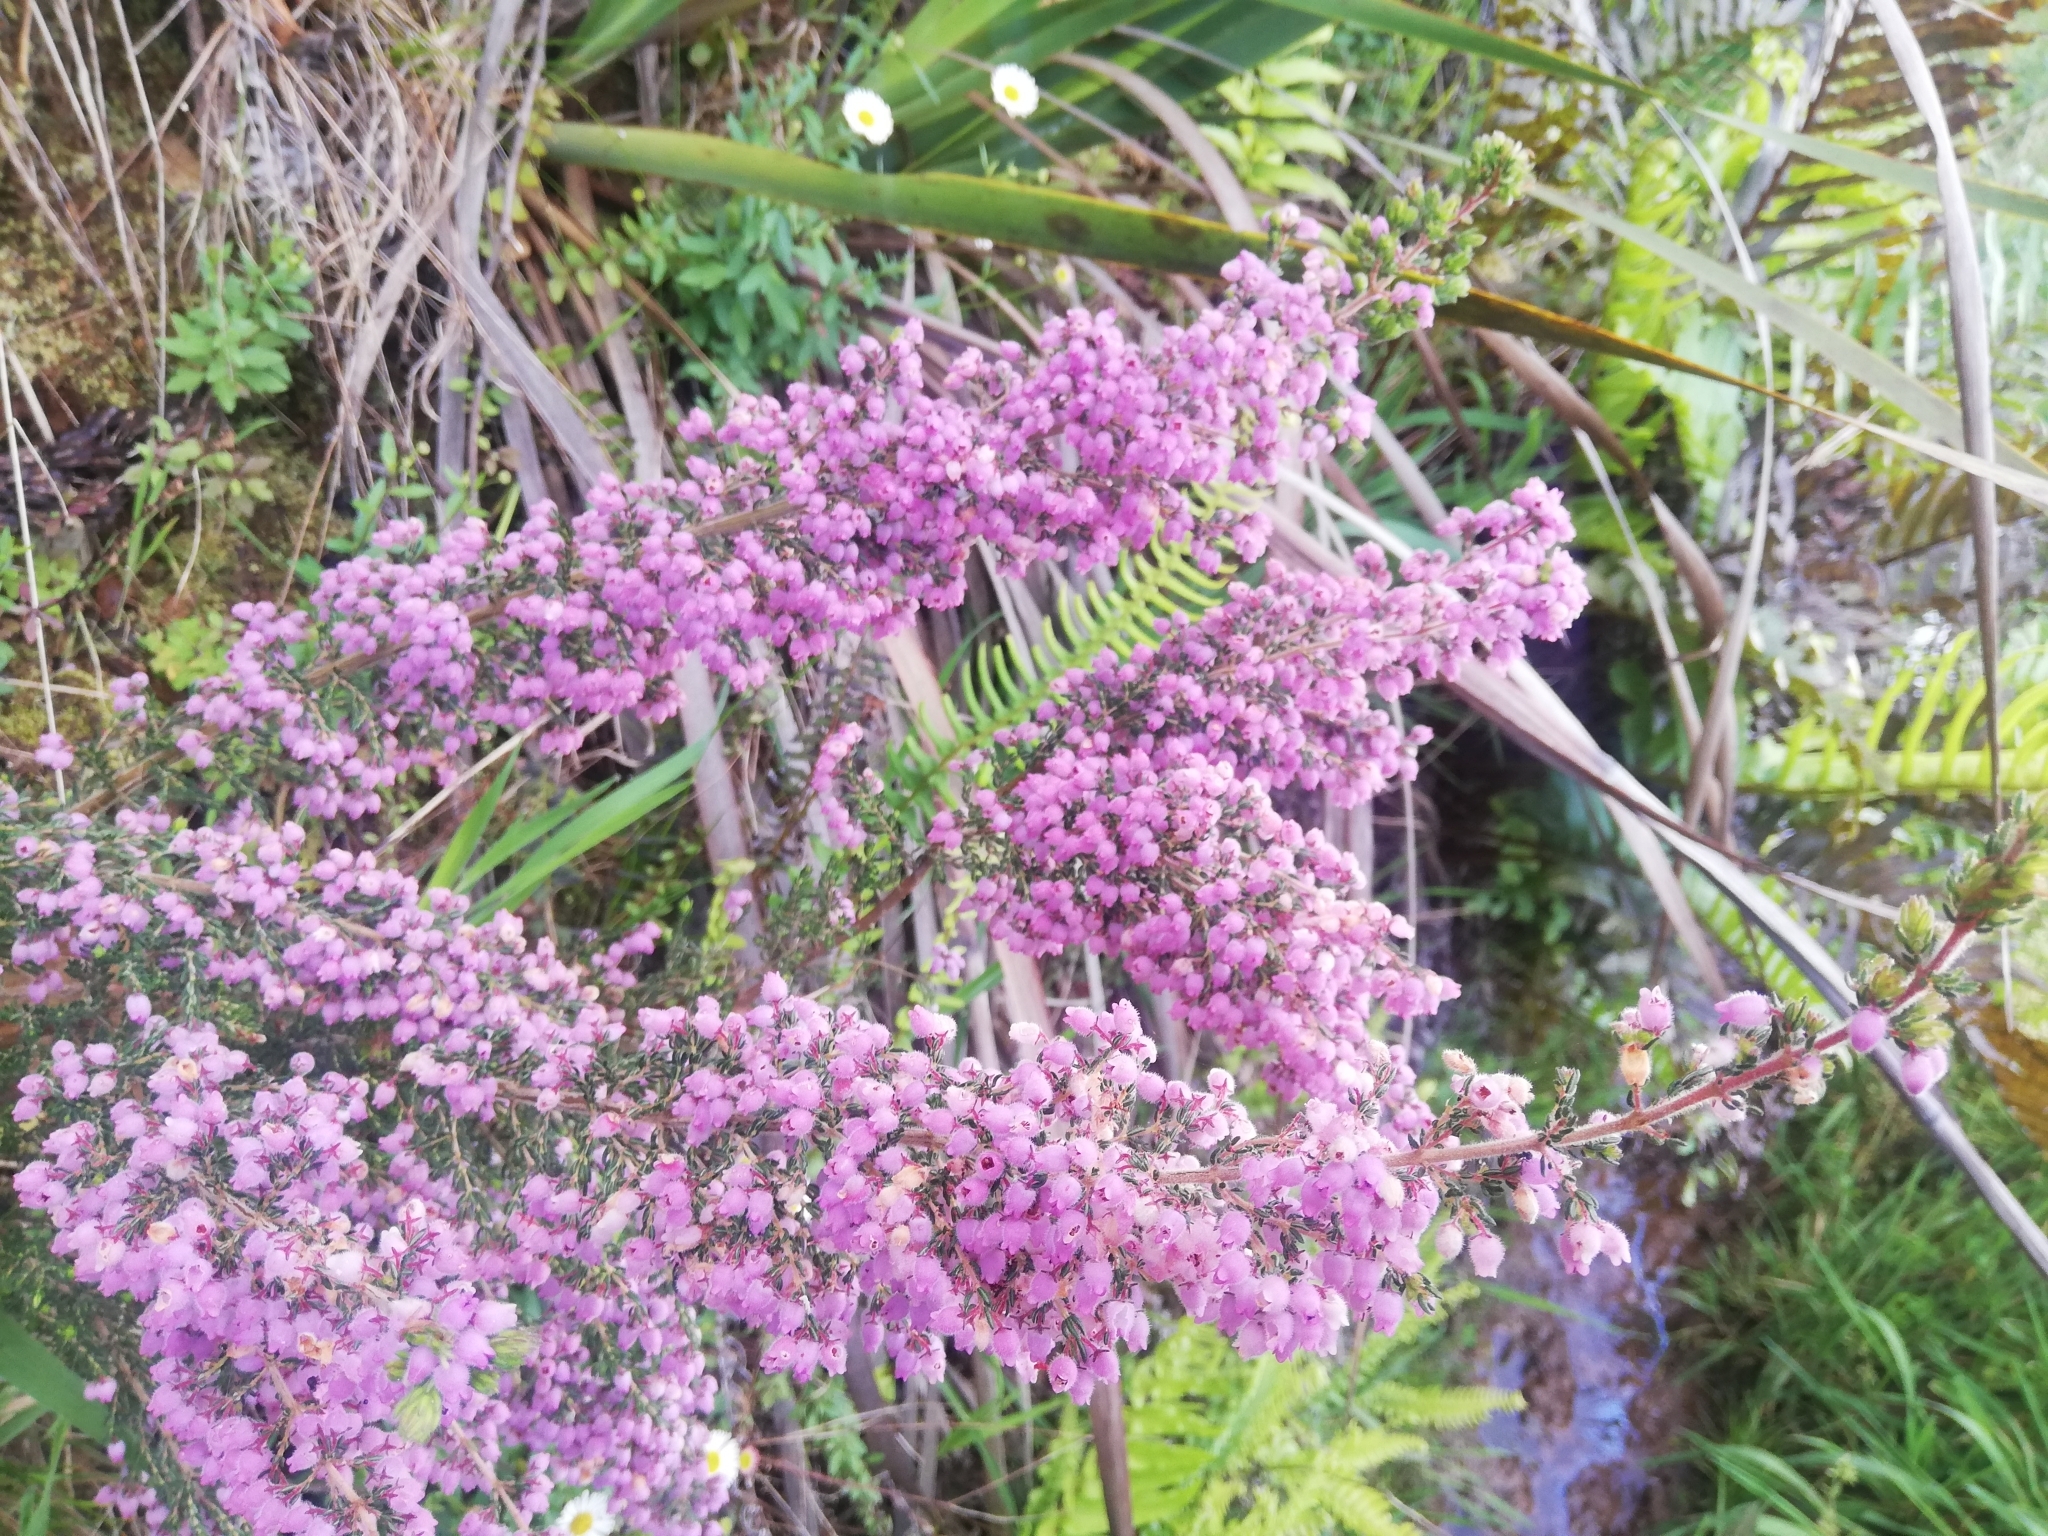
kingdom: Plantae
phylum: Tracheophyta
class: Magnoliopsida
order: Ericales
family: Ericaceae
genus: Erica
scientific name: Erica hirtiflora
